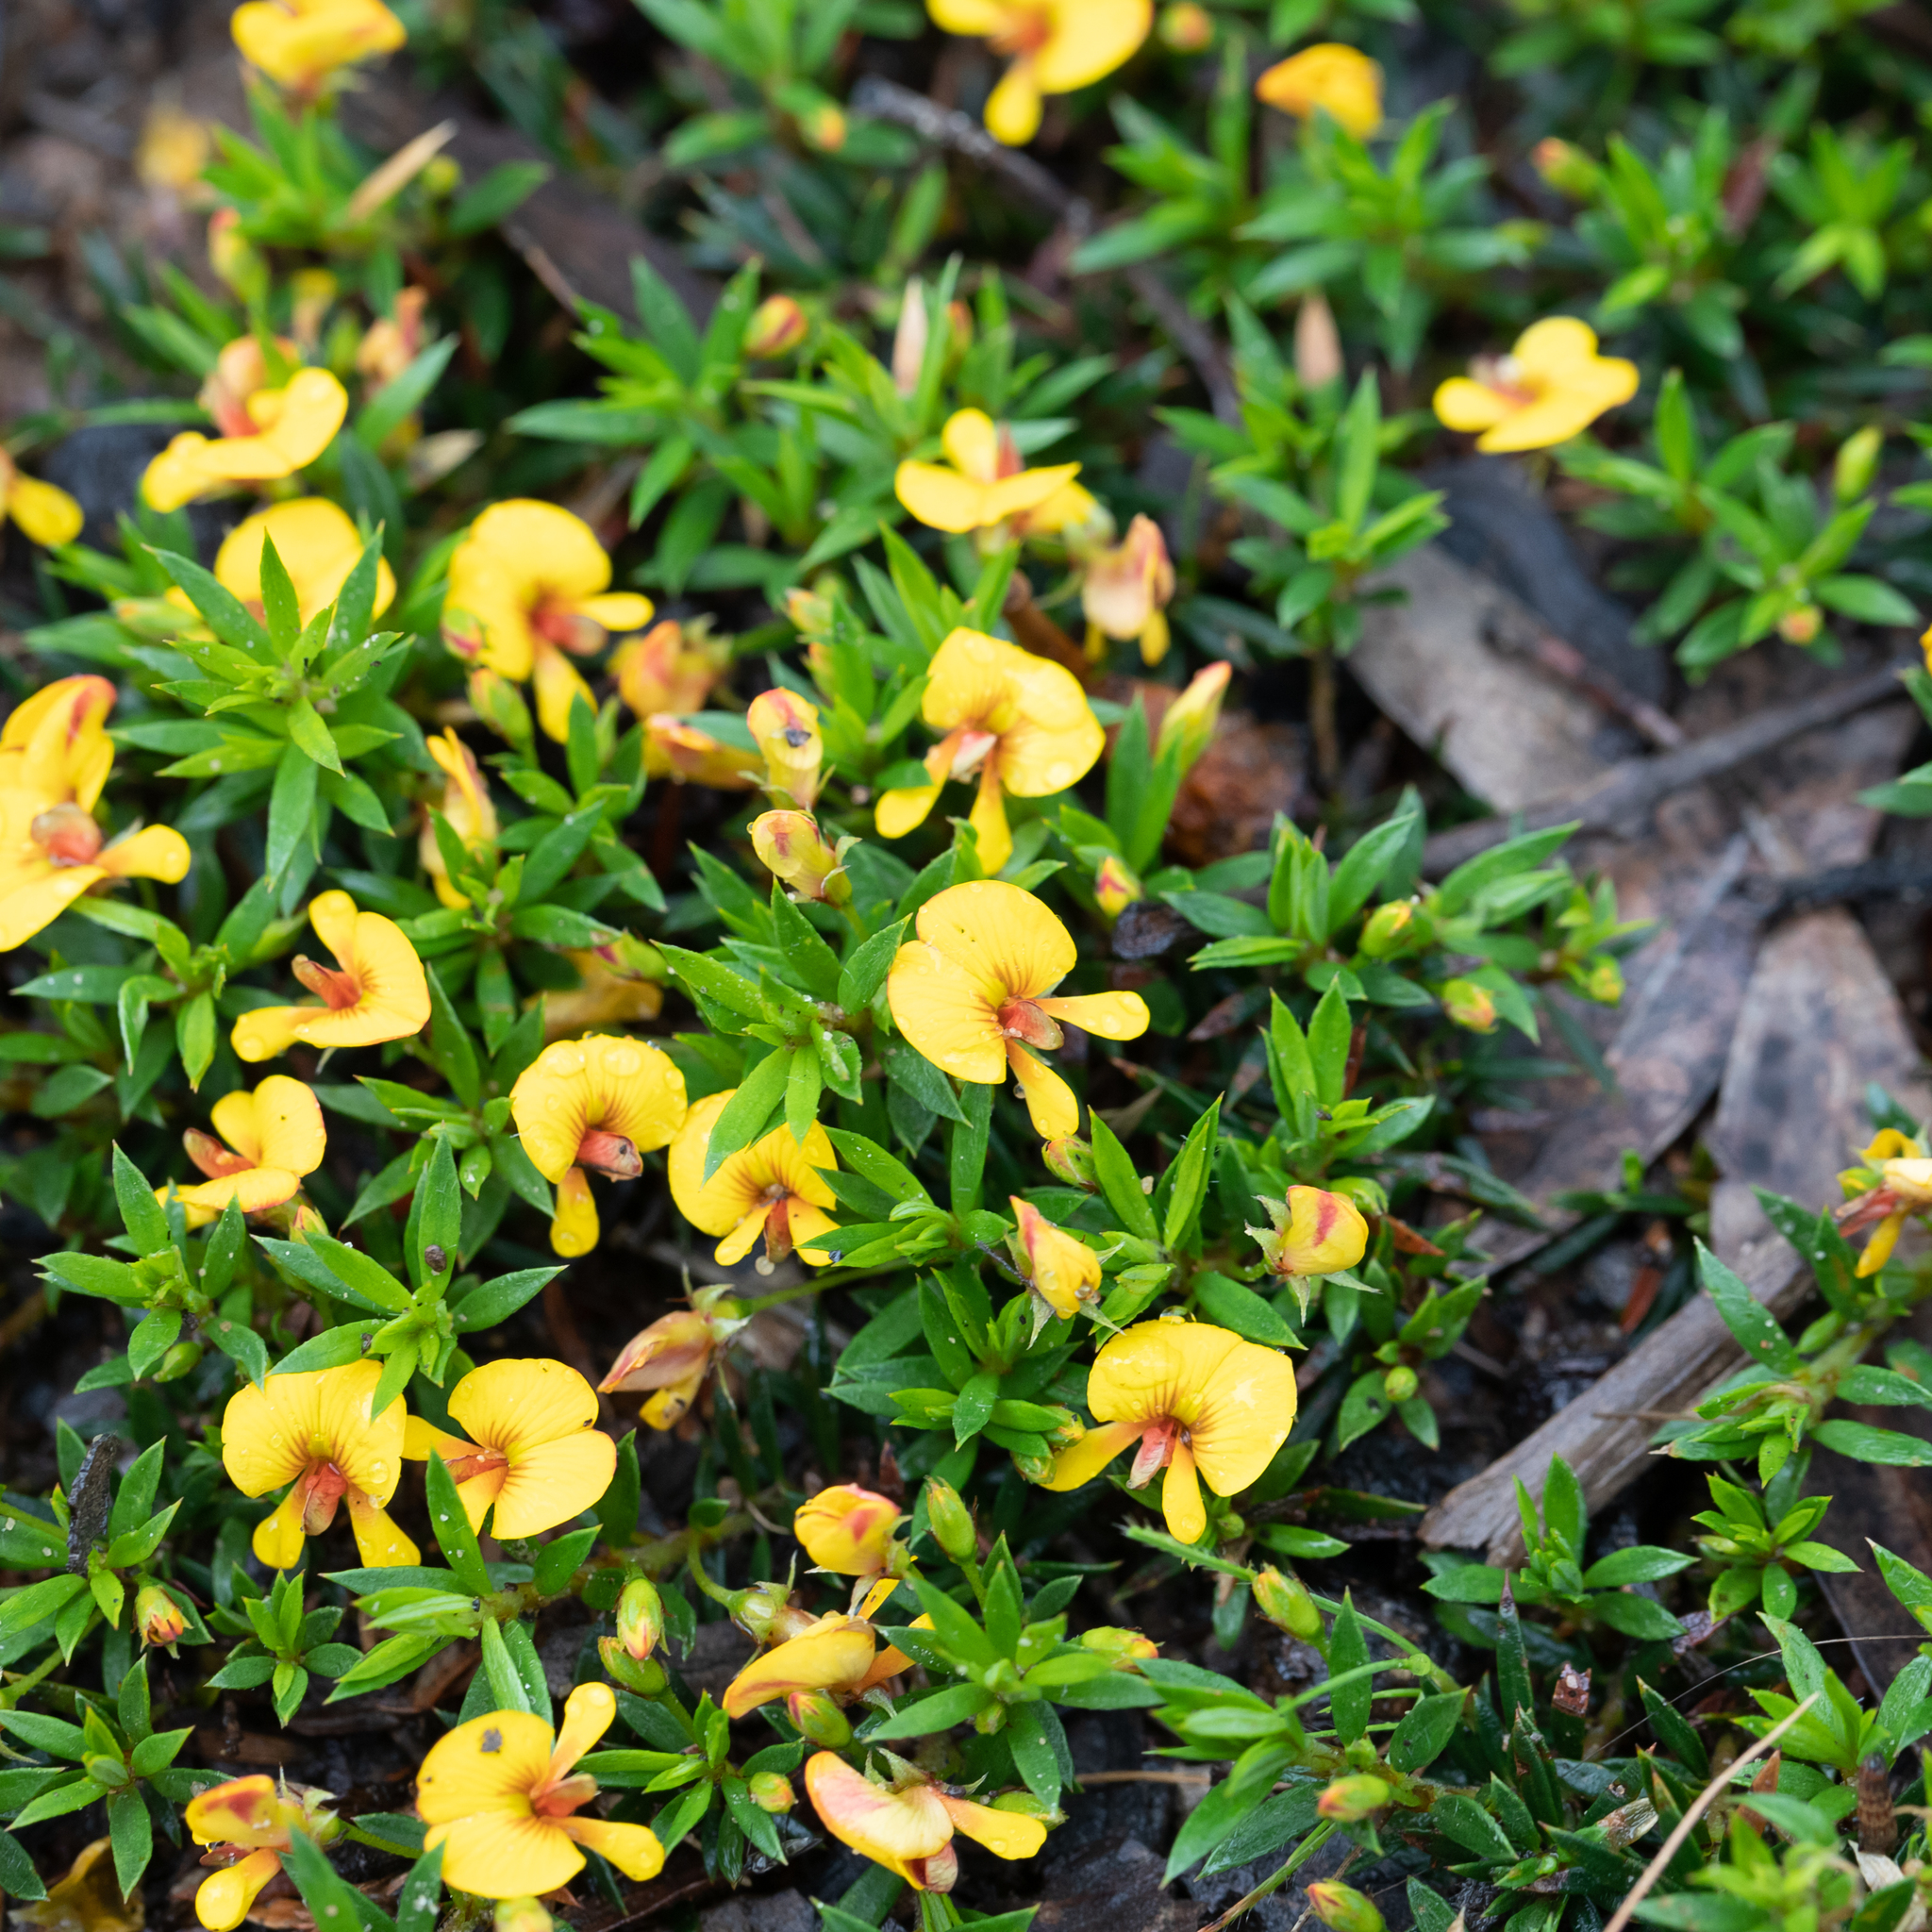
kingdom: Plantae
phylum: Tracheophyta
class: Magnoliopsida
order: Fabales
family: Fabaceae
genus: Pultenaea
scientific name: Pultenaea pedunculata
